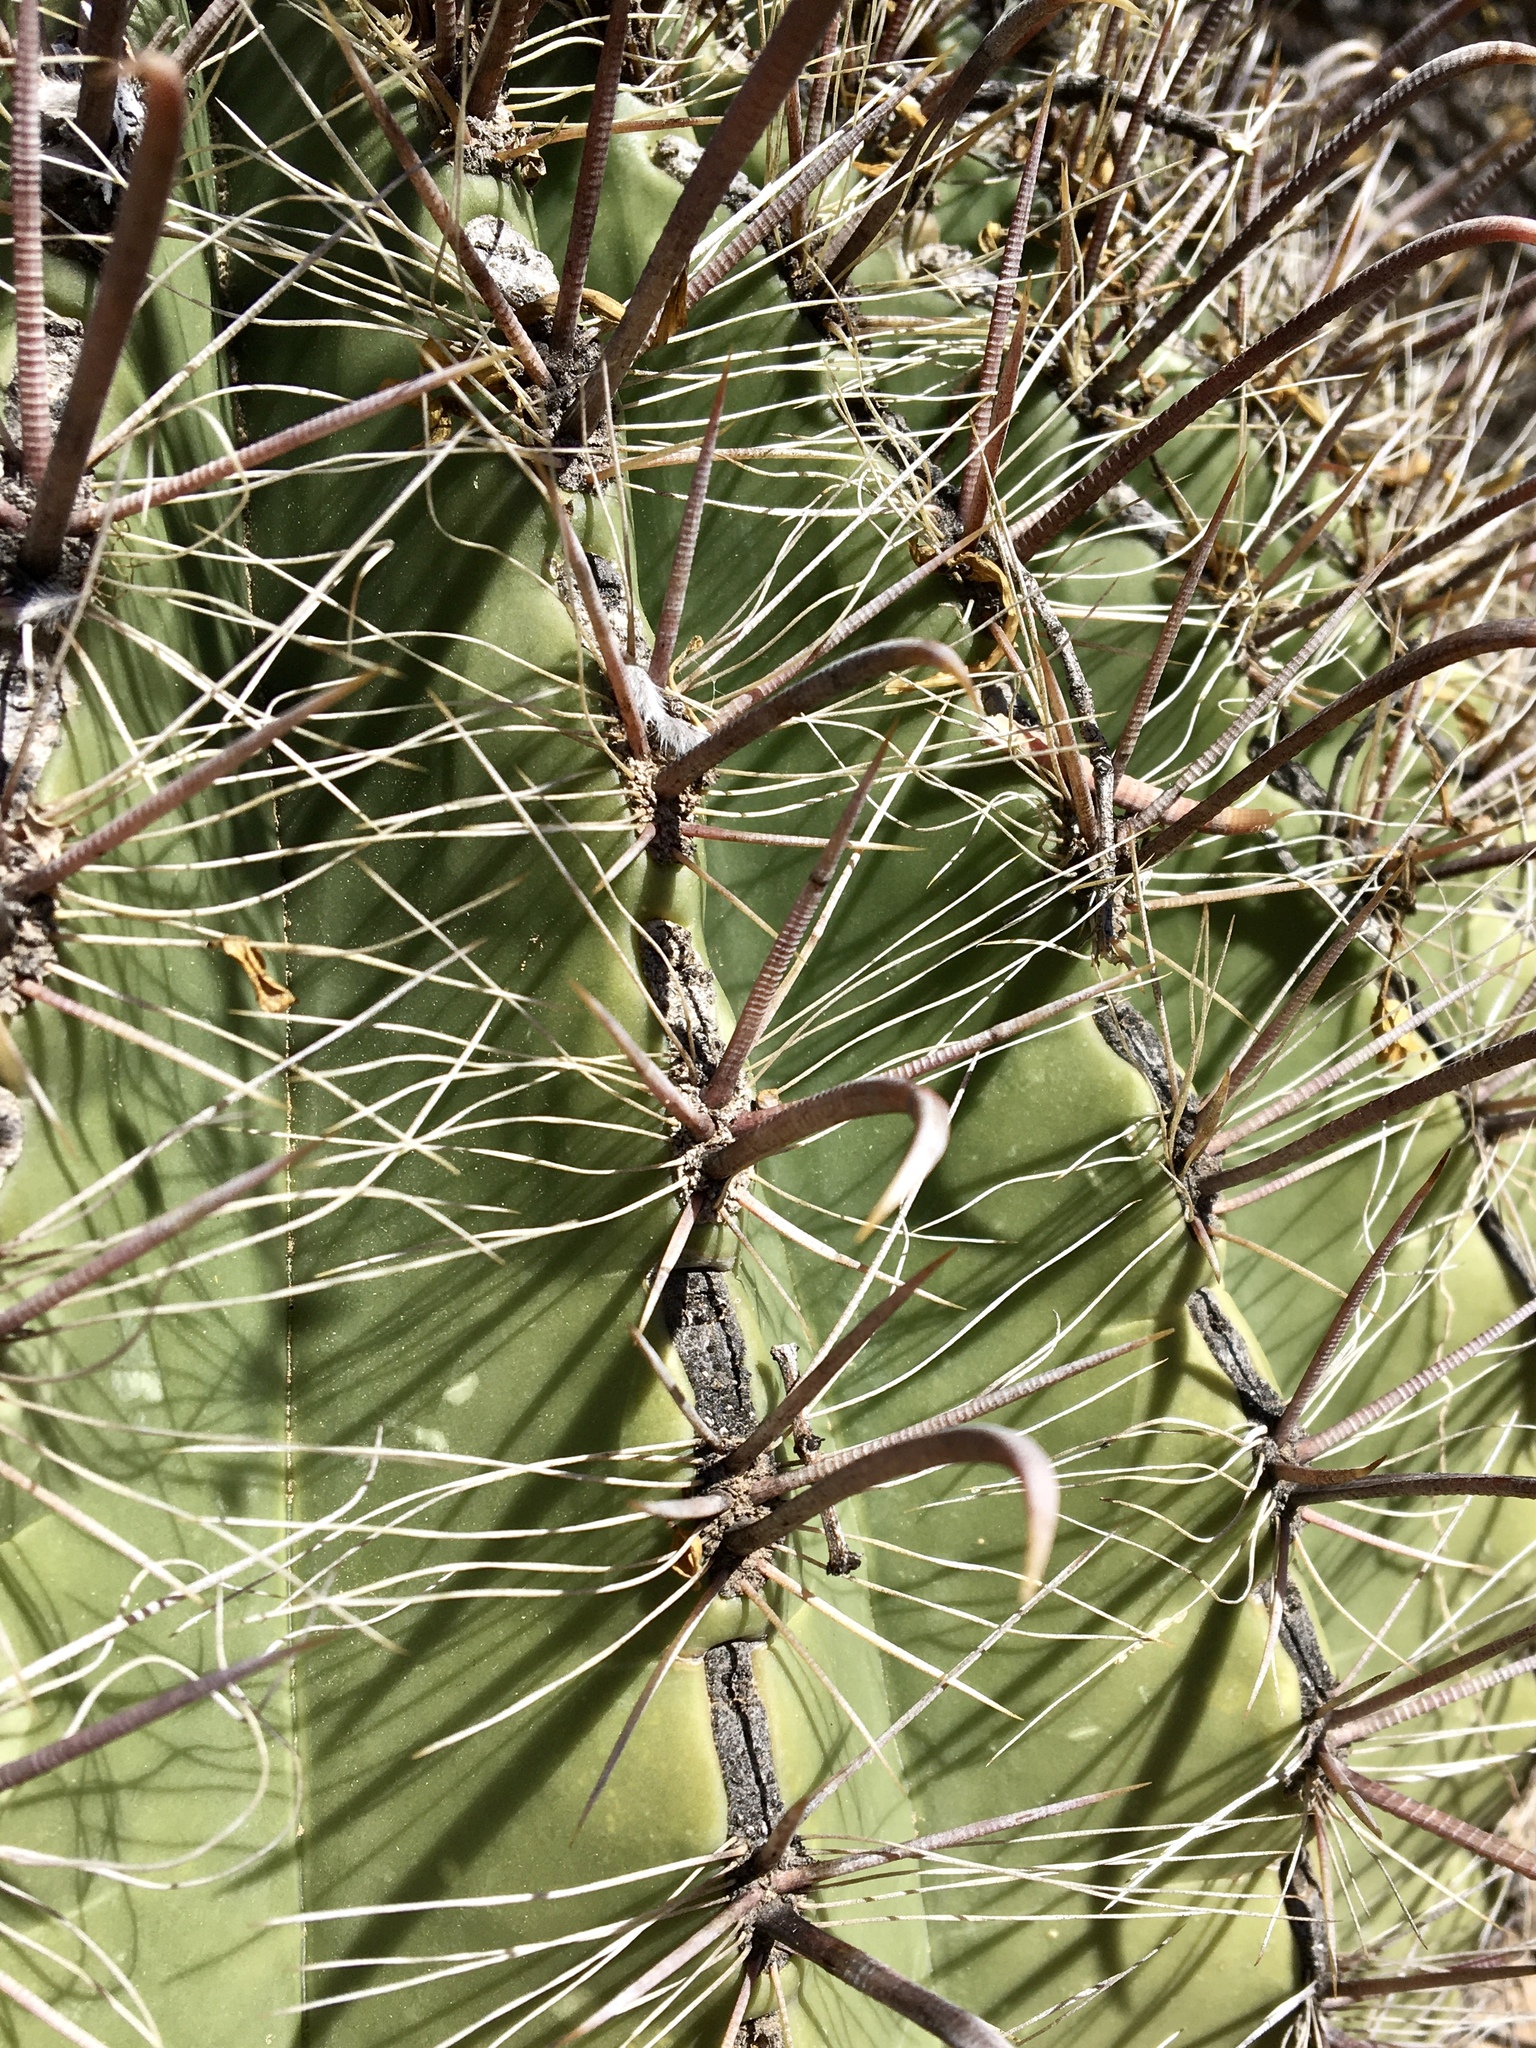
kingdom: Plantae
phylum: Tracheophyta
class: Magnoliopsida
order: Caryophyllales
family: Cactaceae
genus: Ferocactus
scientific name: Ferocactus wislizeni
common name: Candy barrel cactus
